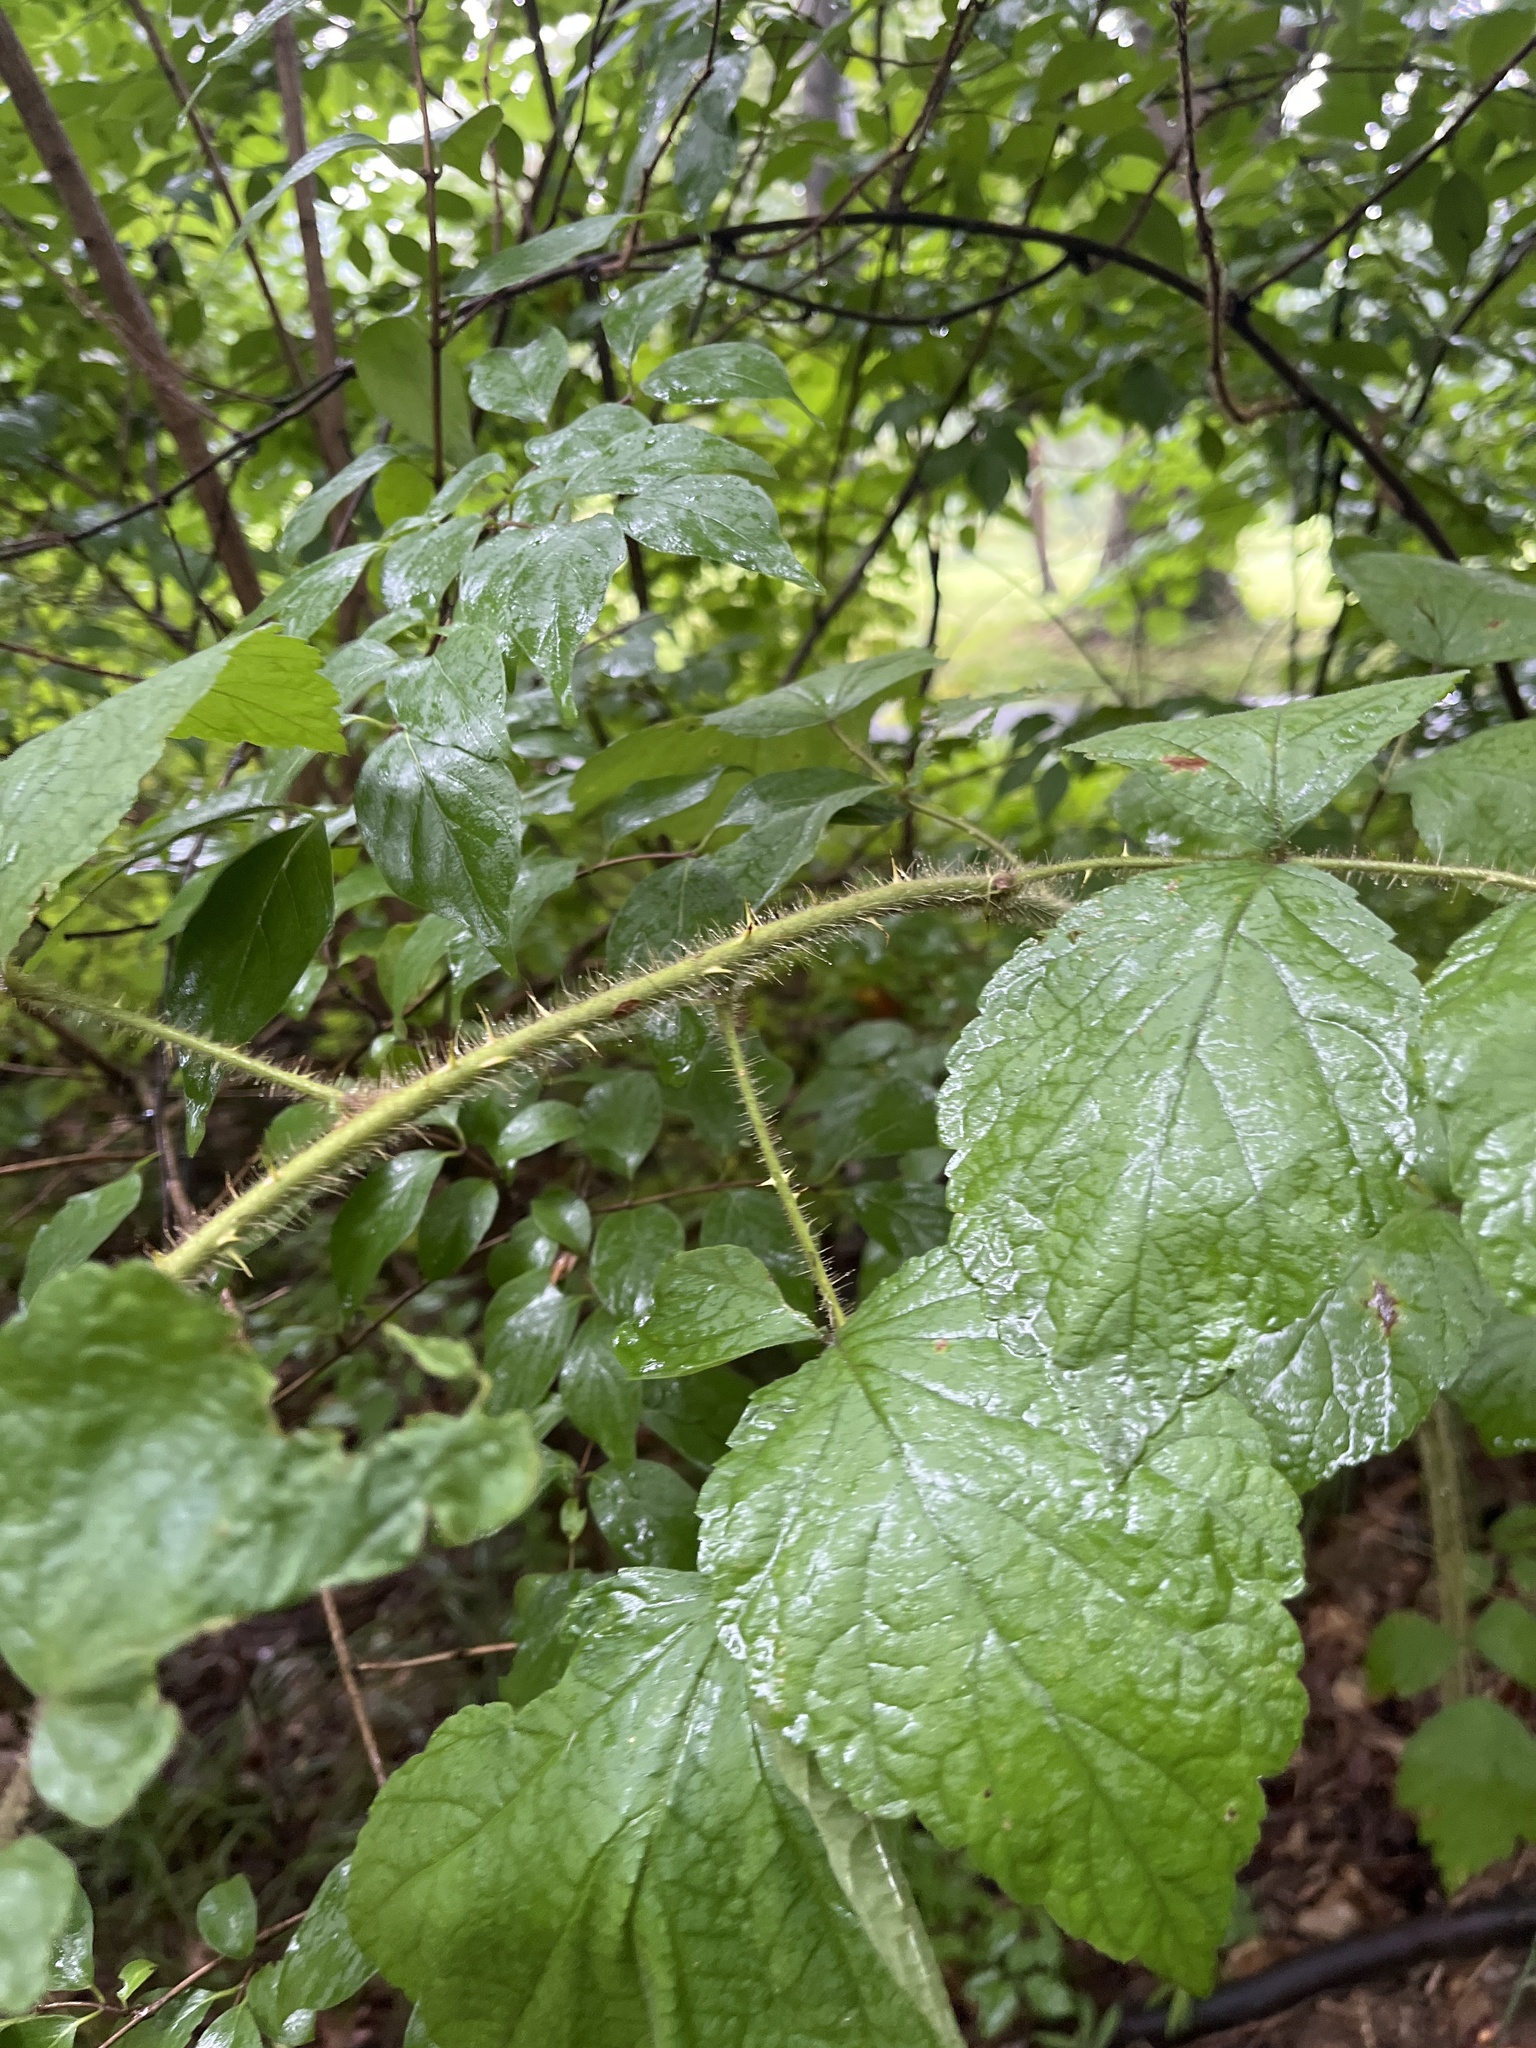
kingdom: Plantae
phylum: Tracheophyta
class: Magnoliopsida
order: Rosales
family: Rosaceae
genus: Rubus
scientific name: Rubus phoenicolasius
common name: Japanese wineberry
